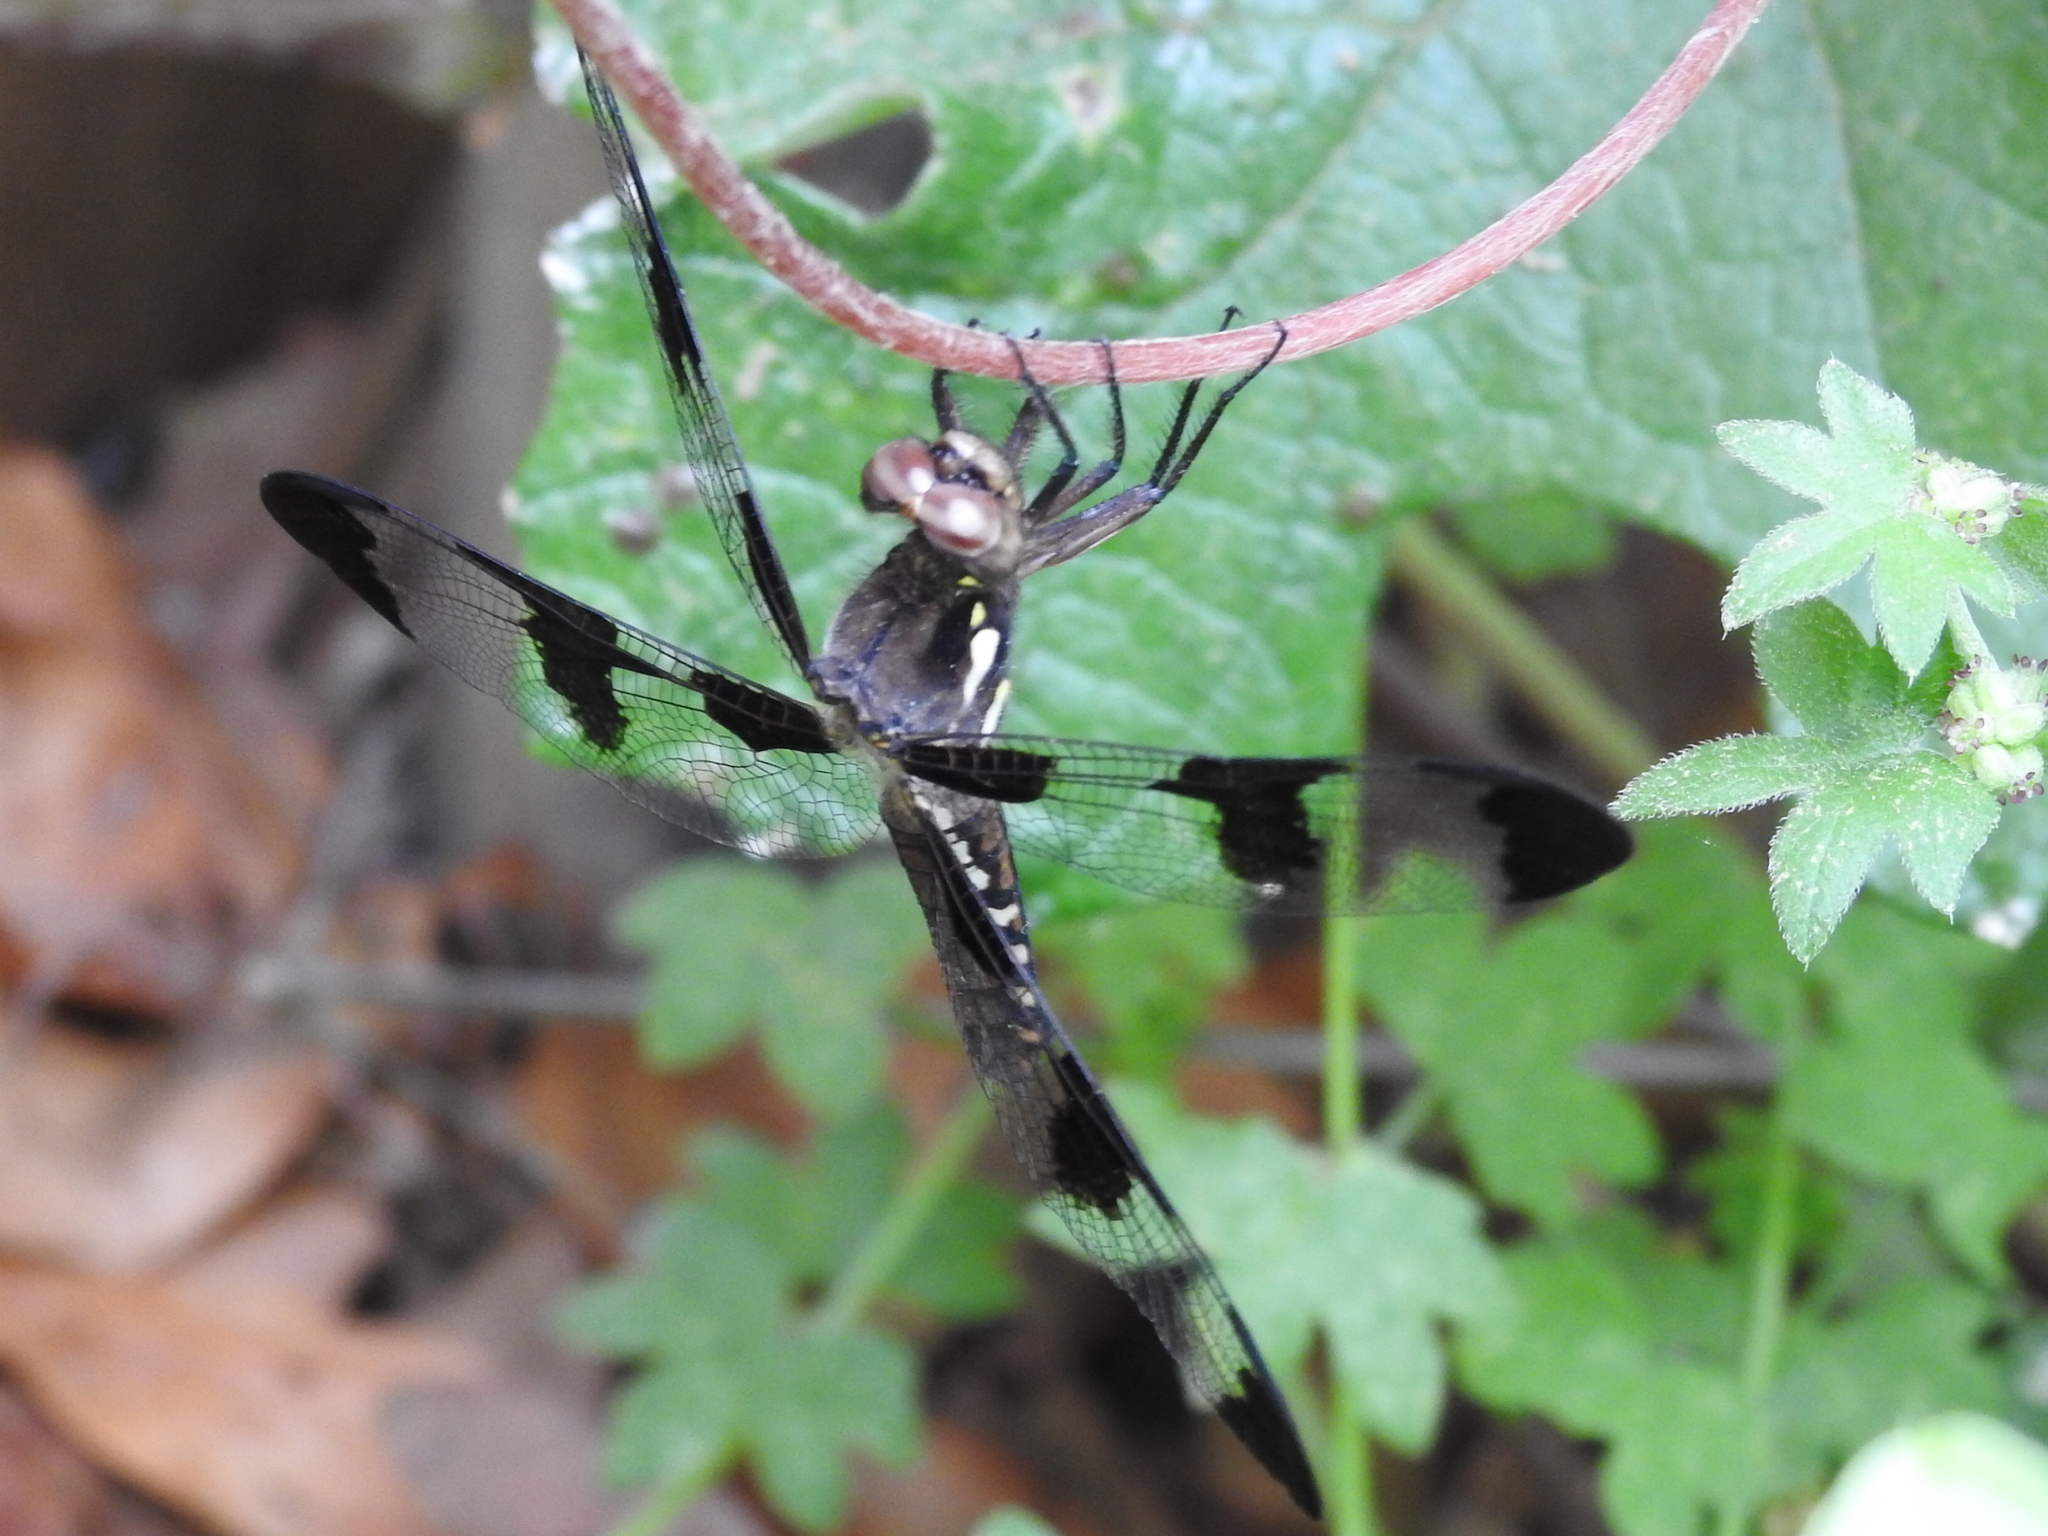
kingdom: Animalia
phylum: Arthropoda
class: Insecta
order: Odonata
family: Libellulidae
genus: Plathemis
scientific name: Plathemis lydia
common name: Common whitetail
